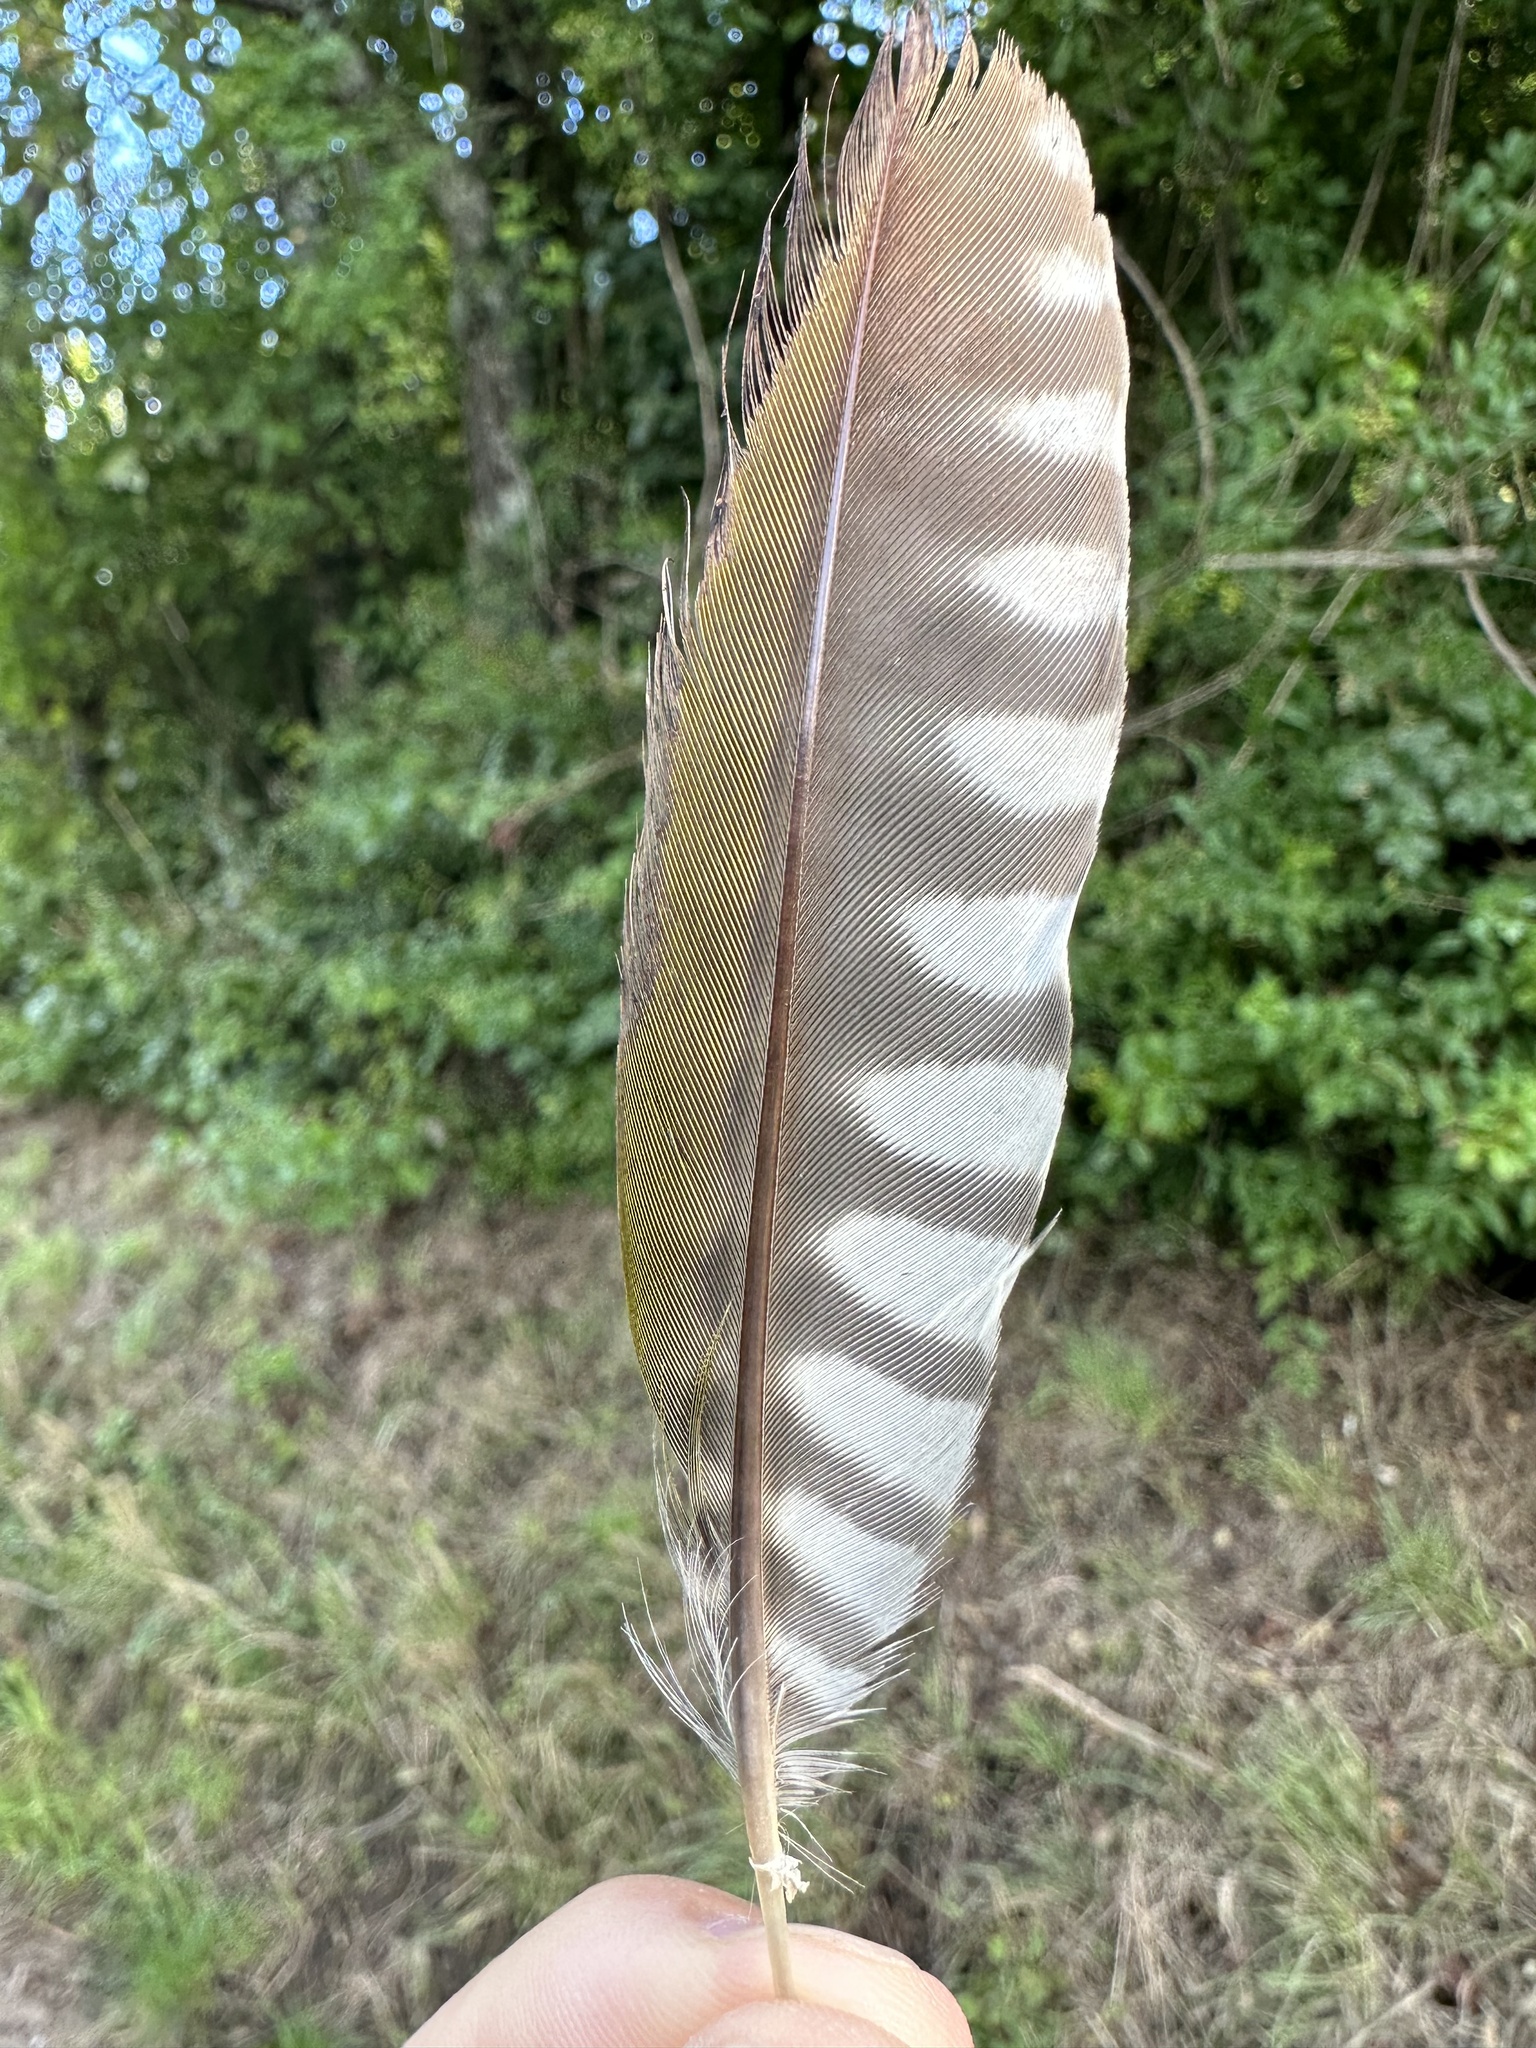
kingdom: Animalia
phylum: Chordata
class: Aves
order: Piciformes
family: Picidae
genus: Picus
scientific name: Picus viridis
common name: European green woodpecker
